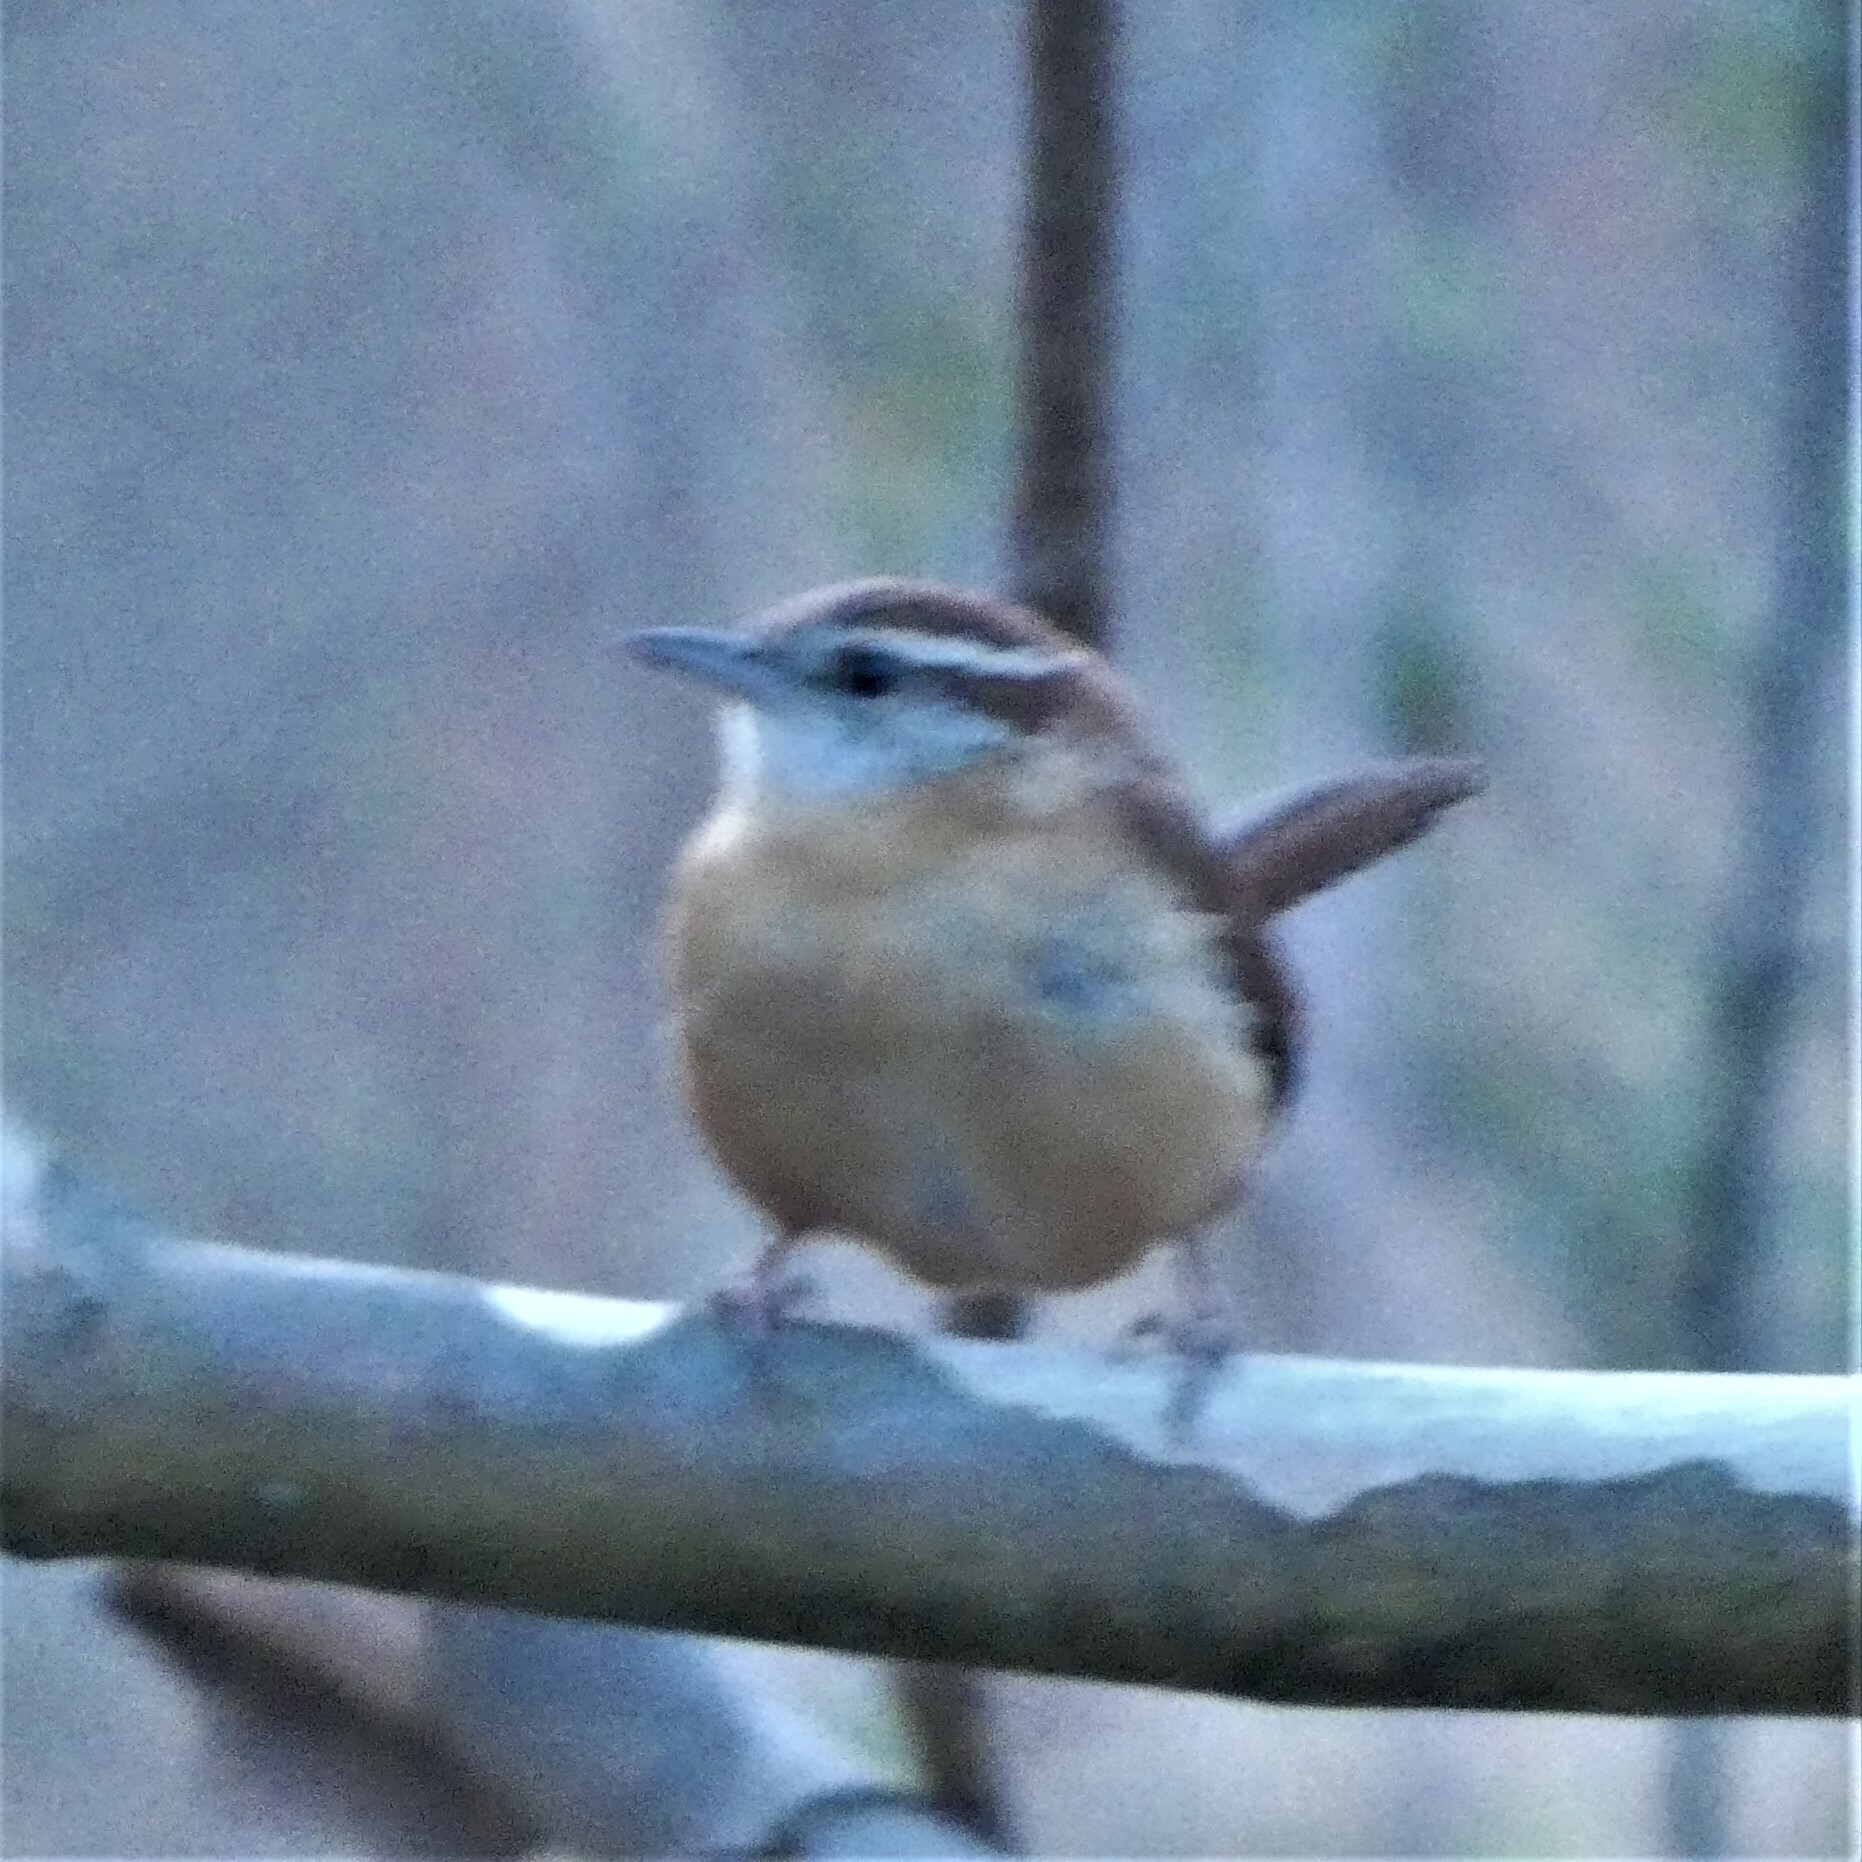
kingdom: Animalia
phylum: Chordata
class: Aves
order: Passeriformes
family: Troglodytidae
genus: Thryothorus
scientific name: Thryothorus ludovicianus
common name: Carolina wren
